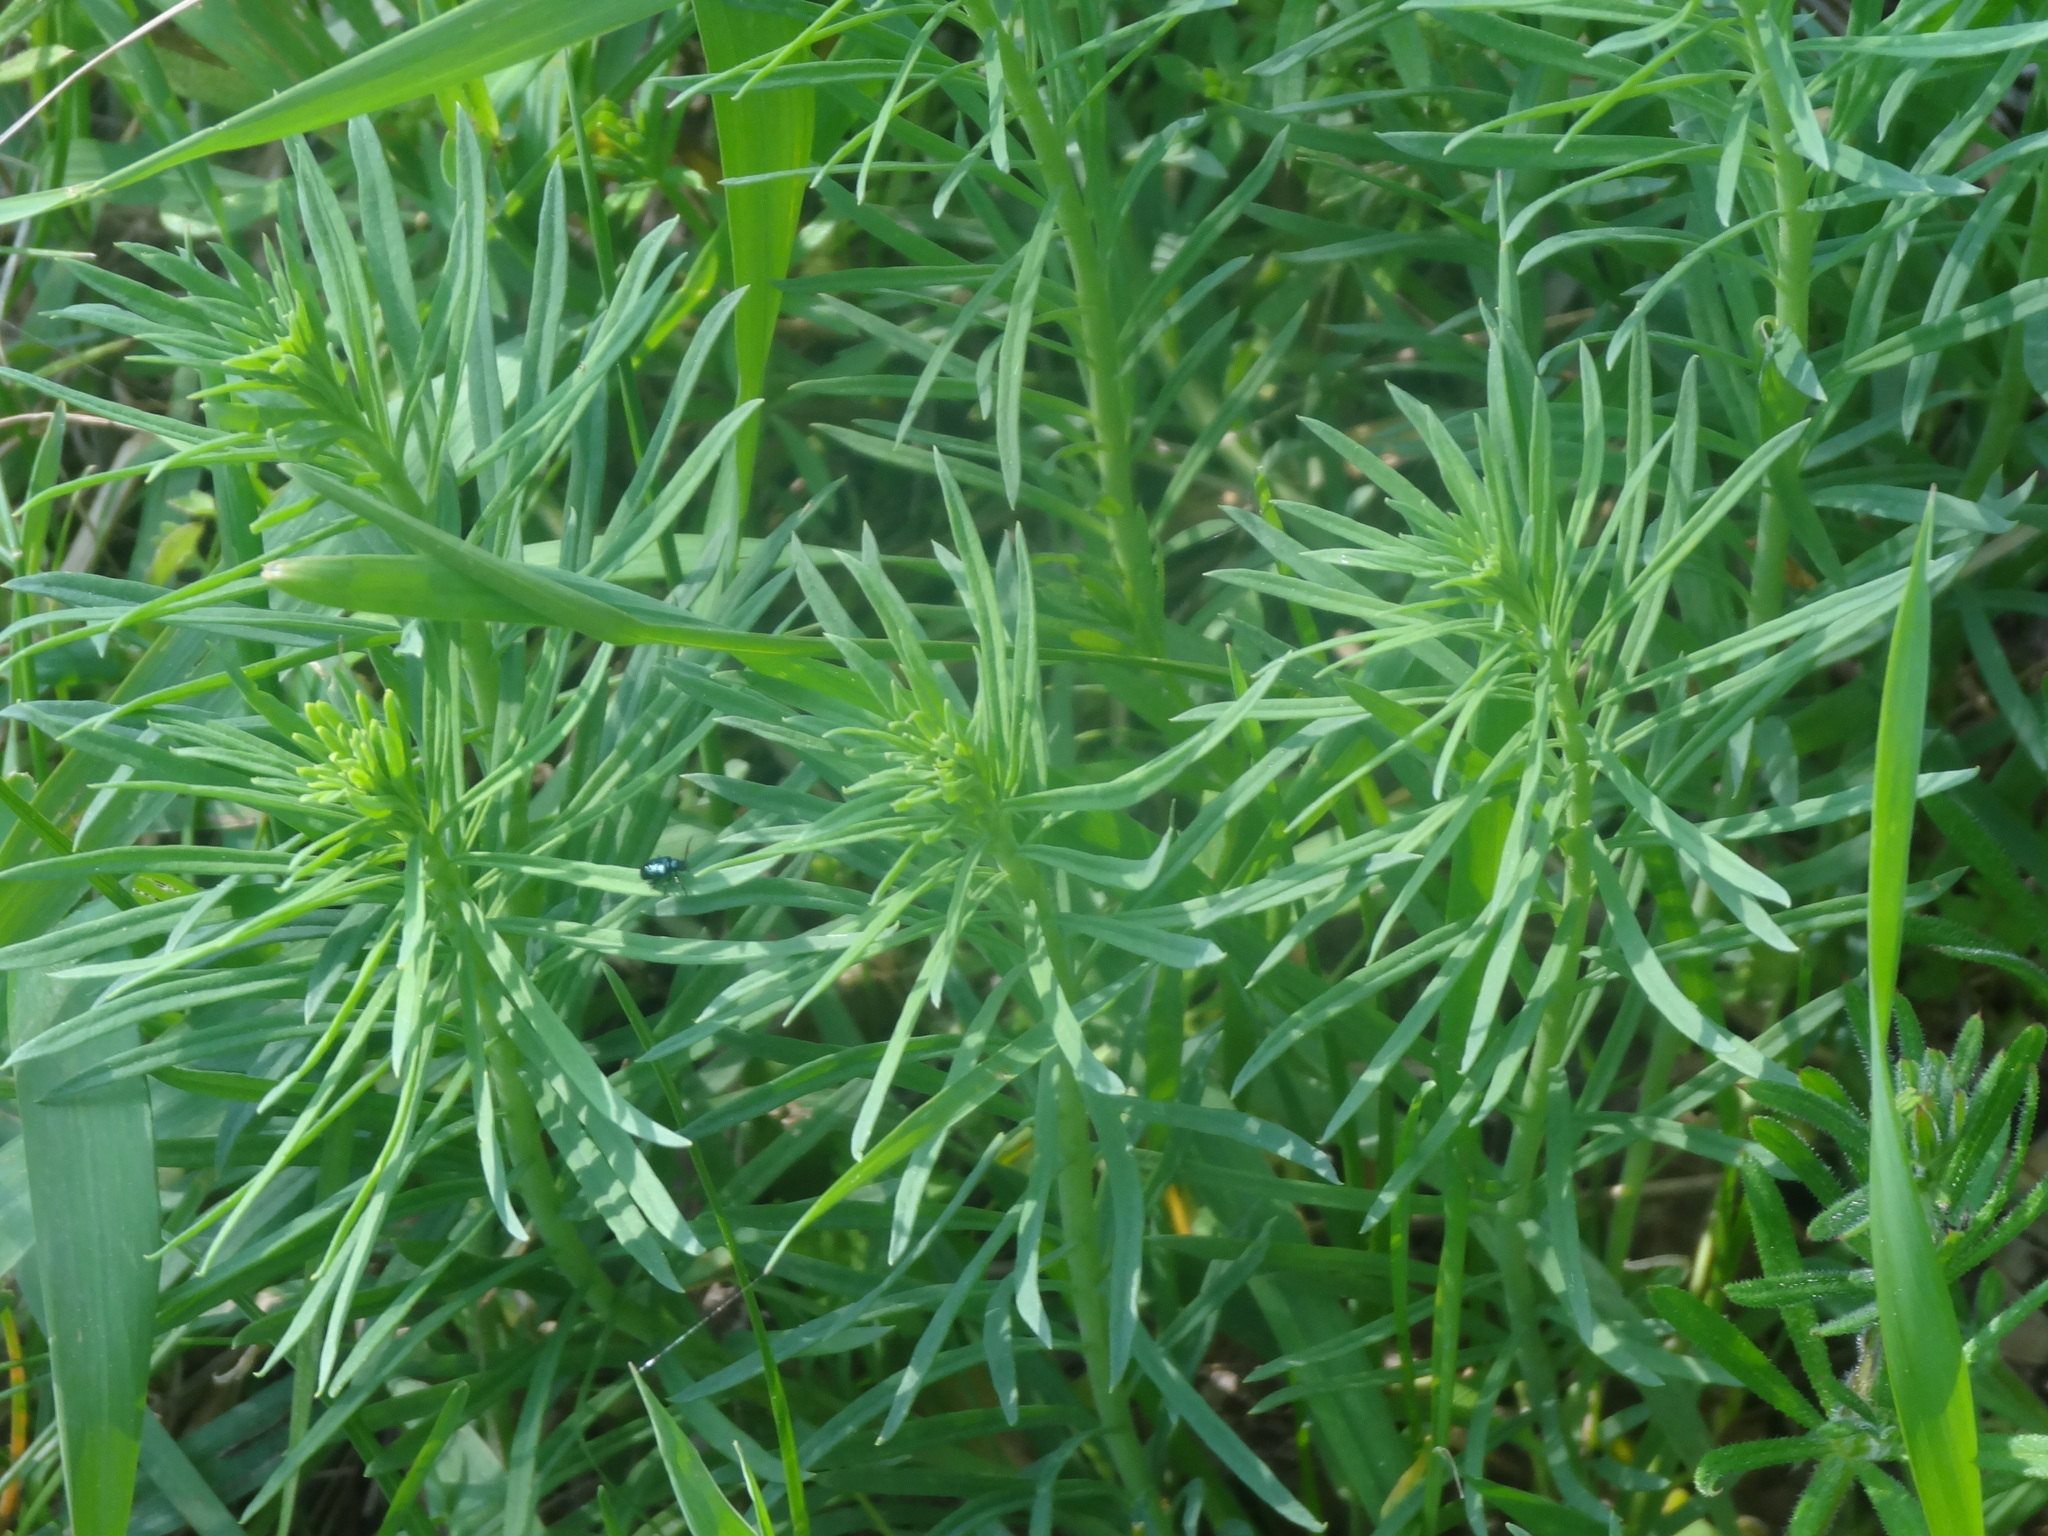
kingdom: Plantae
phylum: Tracheophyta
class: Magnoliopsida
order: Malpighiales
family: Euphorbiaceae
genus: Euphorbia
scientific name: Euphorbia cyparissias
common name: Cypress spurge
